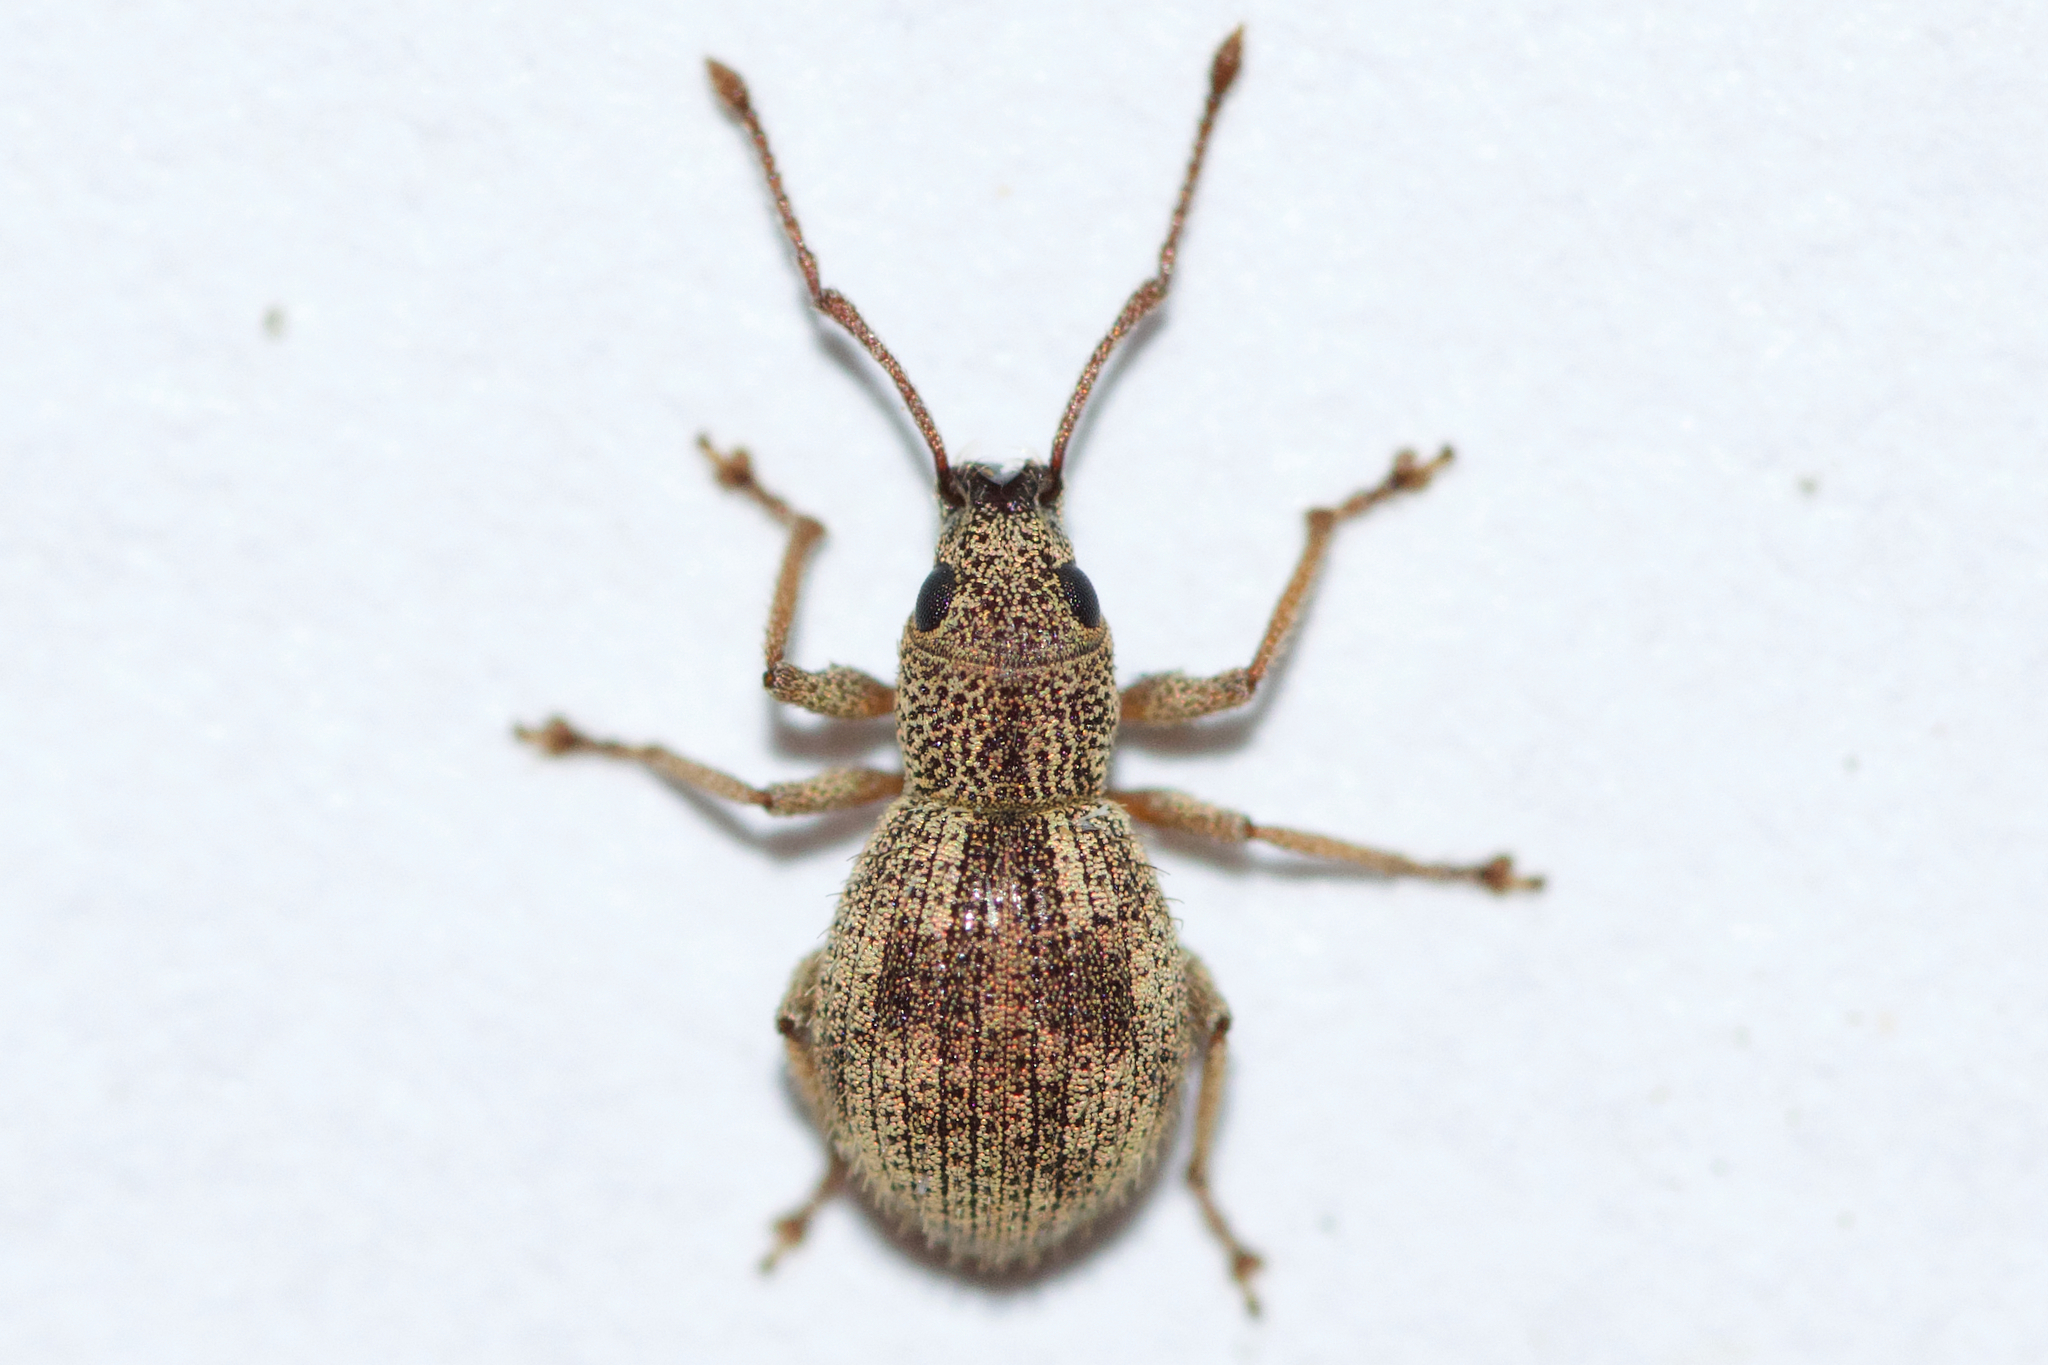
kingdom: Animalia
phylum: Arthropoda
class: Insecta
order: Coleoptera
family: Curculionidae
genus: Calomycterus
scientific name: Calomycterus setarius
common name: Weevil
